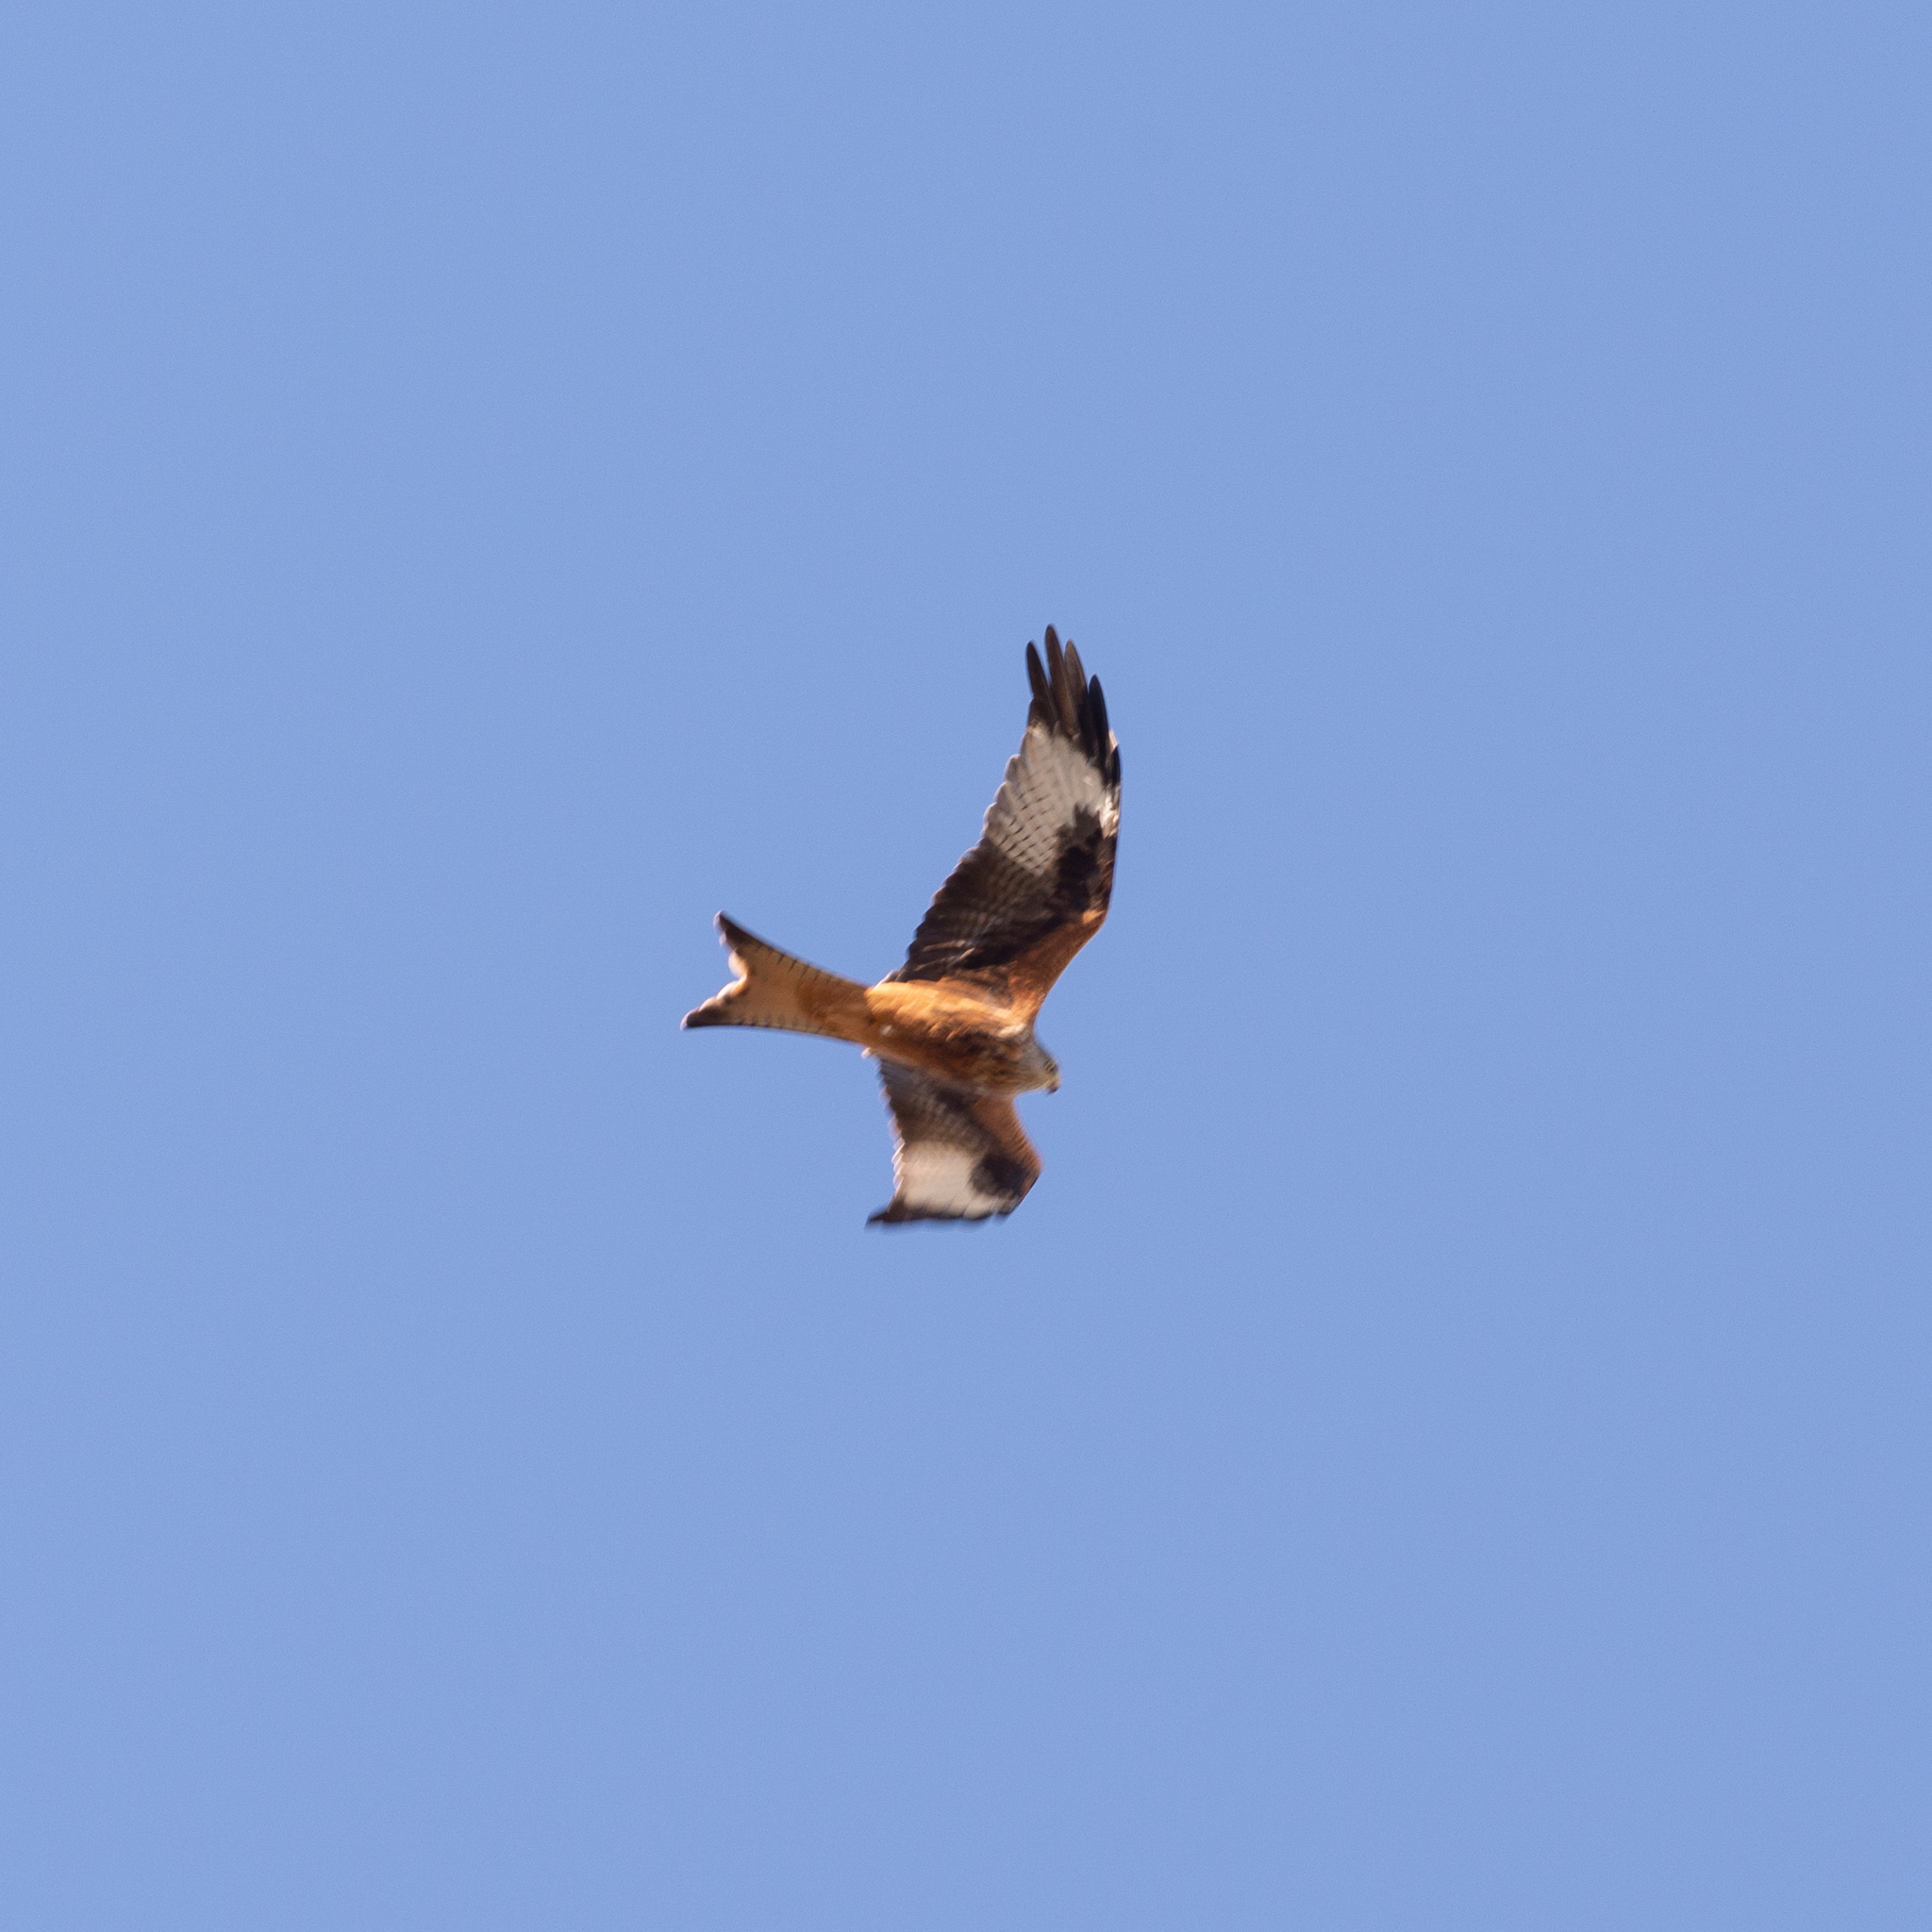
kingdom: Animalia
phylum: Chordata
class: Aves
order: Accipitriformes
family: Accipitridae
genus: Milvus
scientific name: Milvus milvus
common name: Red kite
